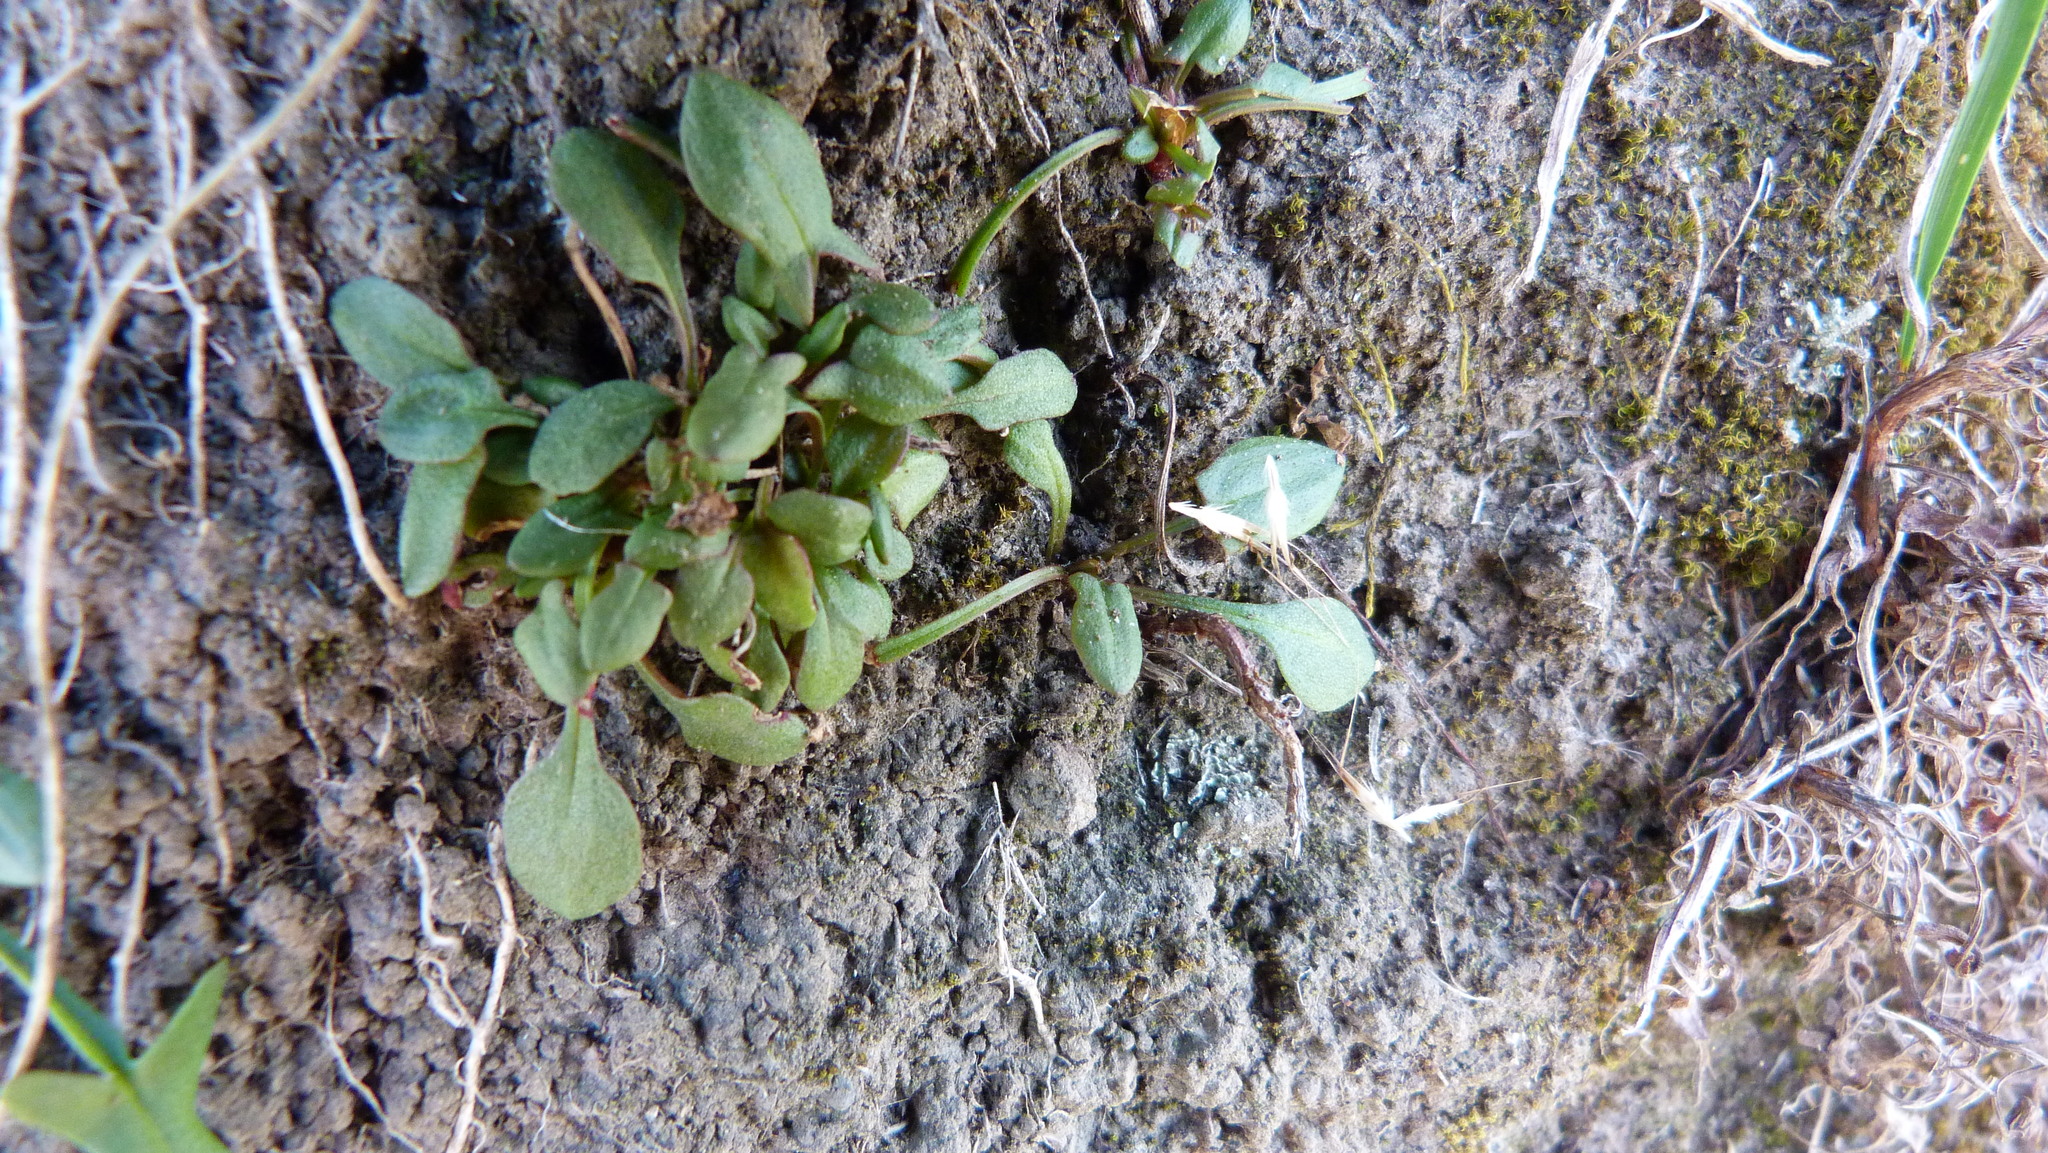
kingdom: Plantae
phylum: Tracheophyta
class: Magnoliopsida
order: Caryophyllales
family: Polygonaceae
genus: Rumex
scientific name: Rumex acetosella
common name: Common sheep sorrel
